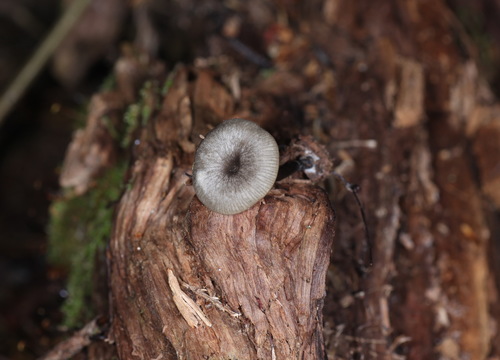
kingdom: Fungi
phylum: Basidiomycota
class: Agaricomycetes
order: Agaricales
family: Hygrophoraceae
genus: Arrhenia
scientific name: Arrhenia epichysium
